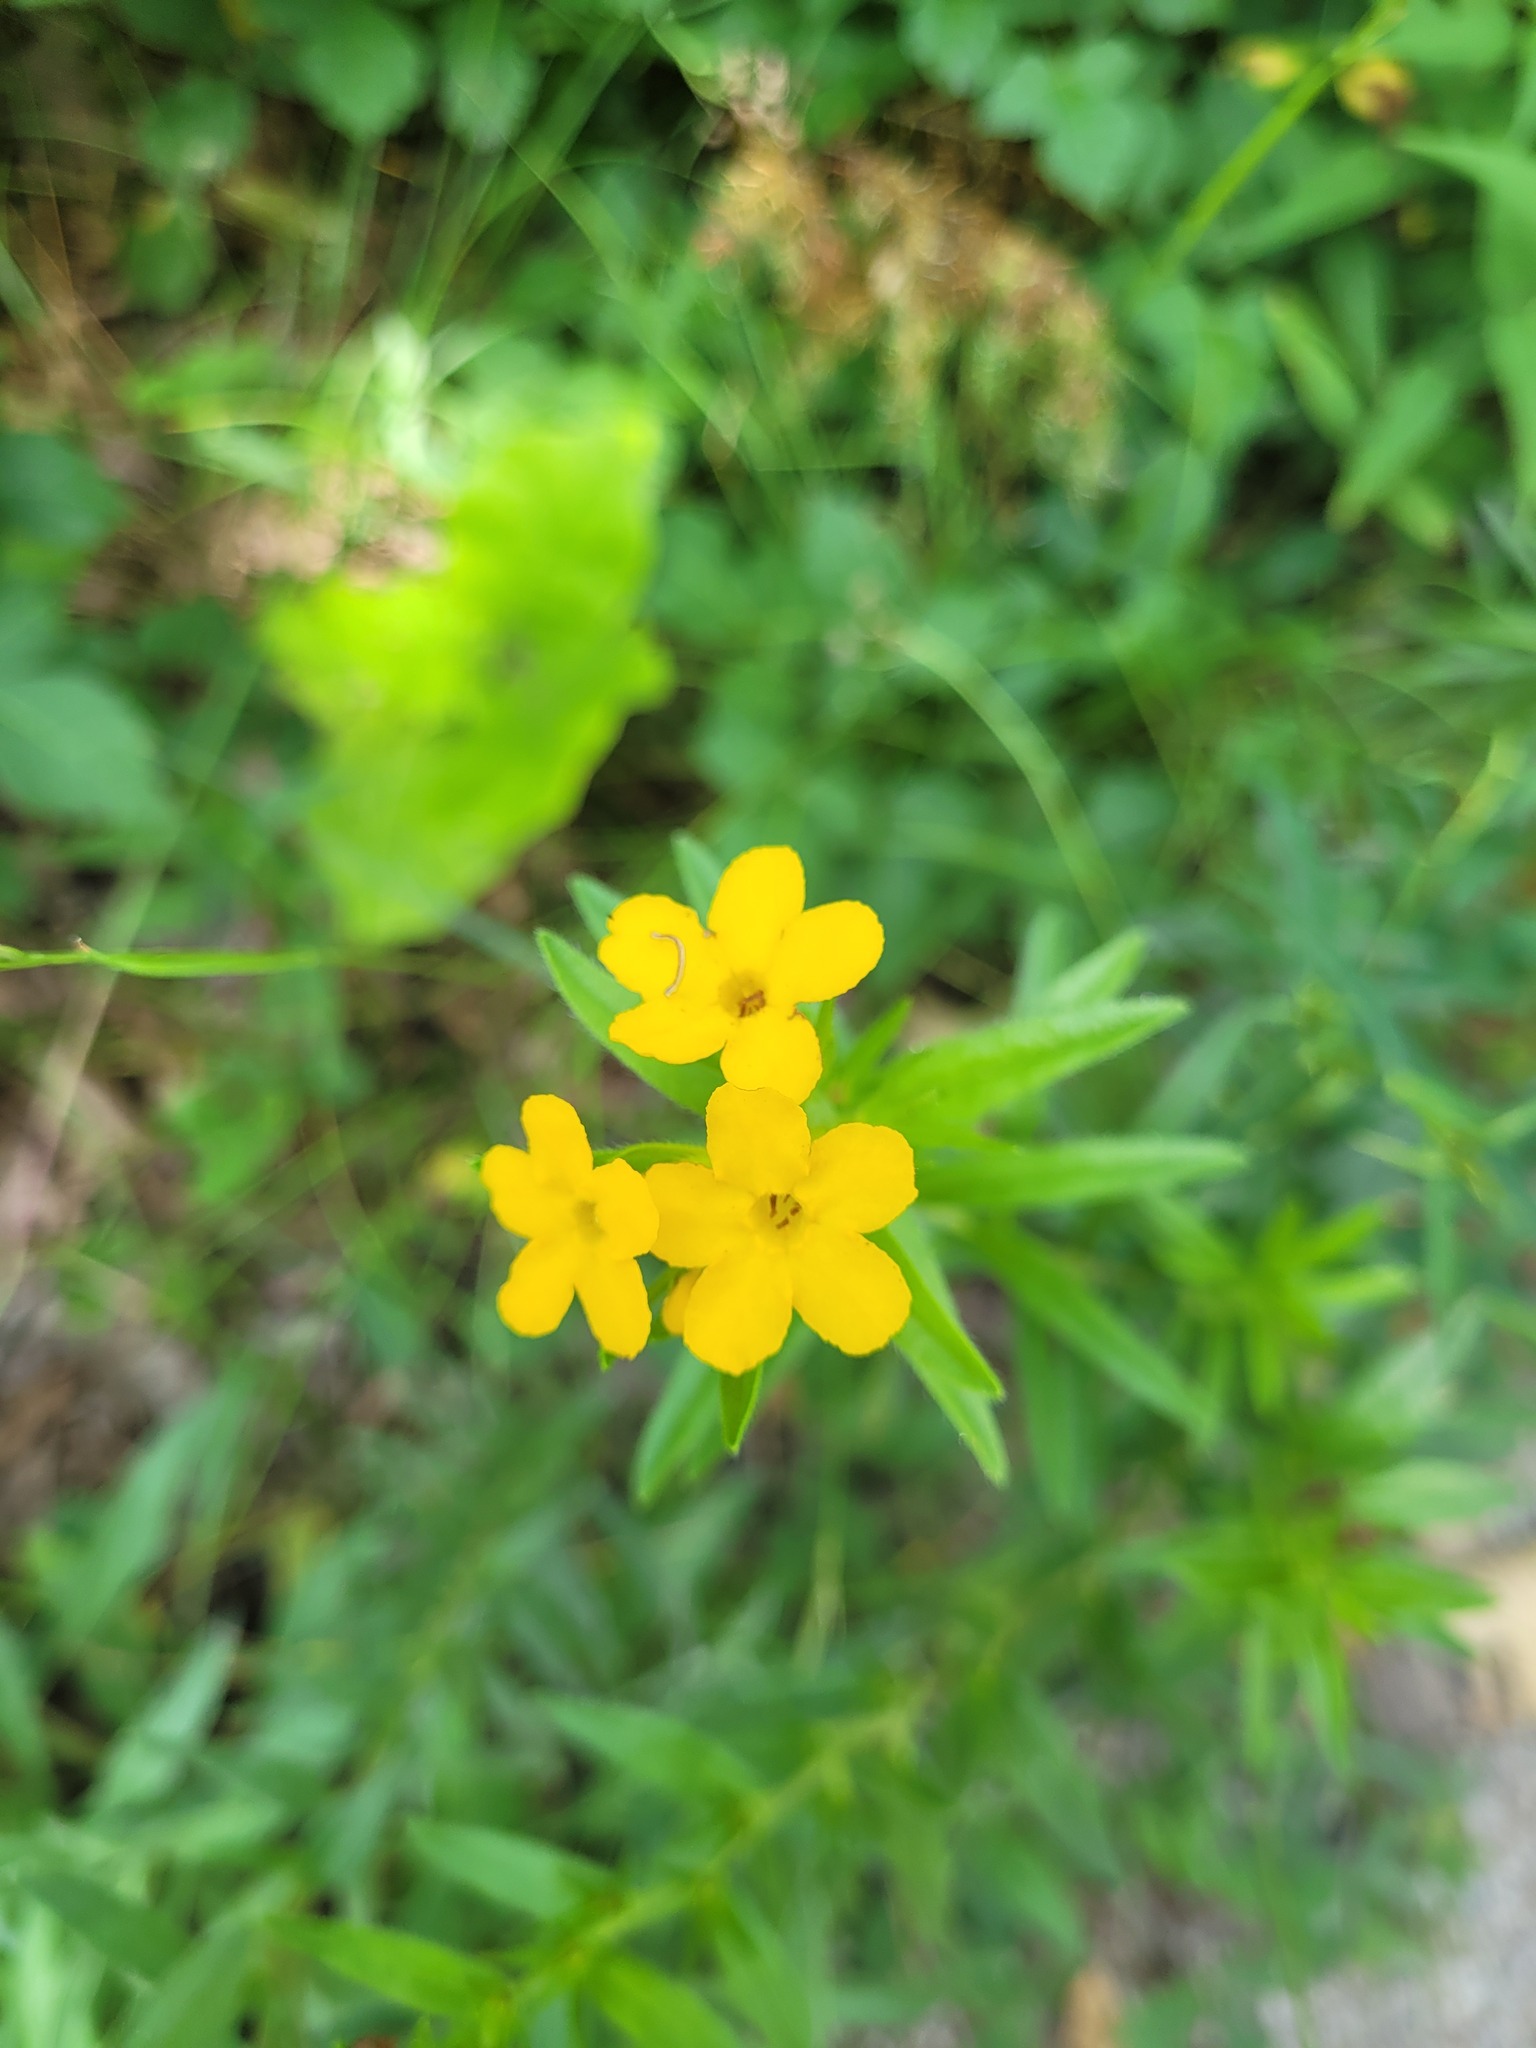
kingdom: Plantae
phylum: Tracheophyta
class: Magnoliopsida
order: Boraginales
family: Boraginaceae
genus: Lithospermum
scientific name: Lithospermum caroliniense
